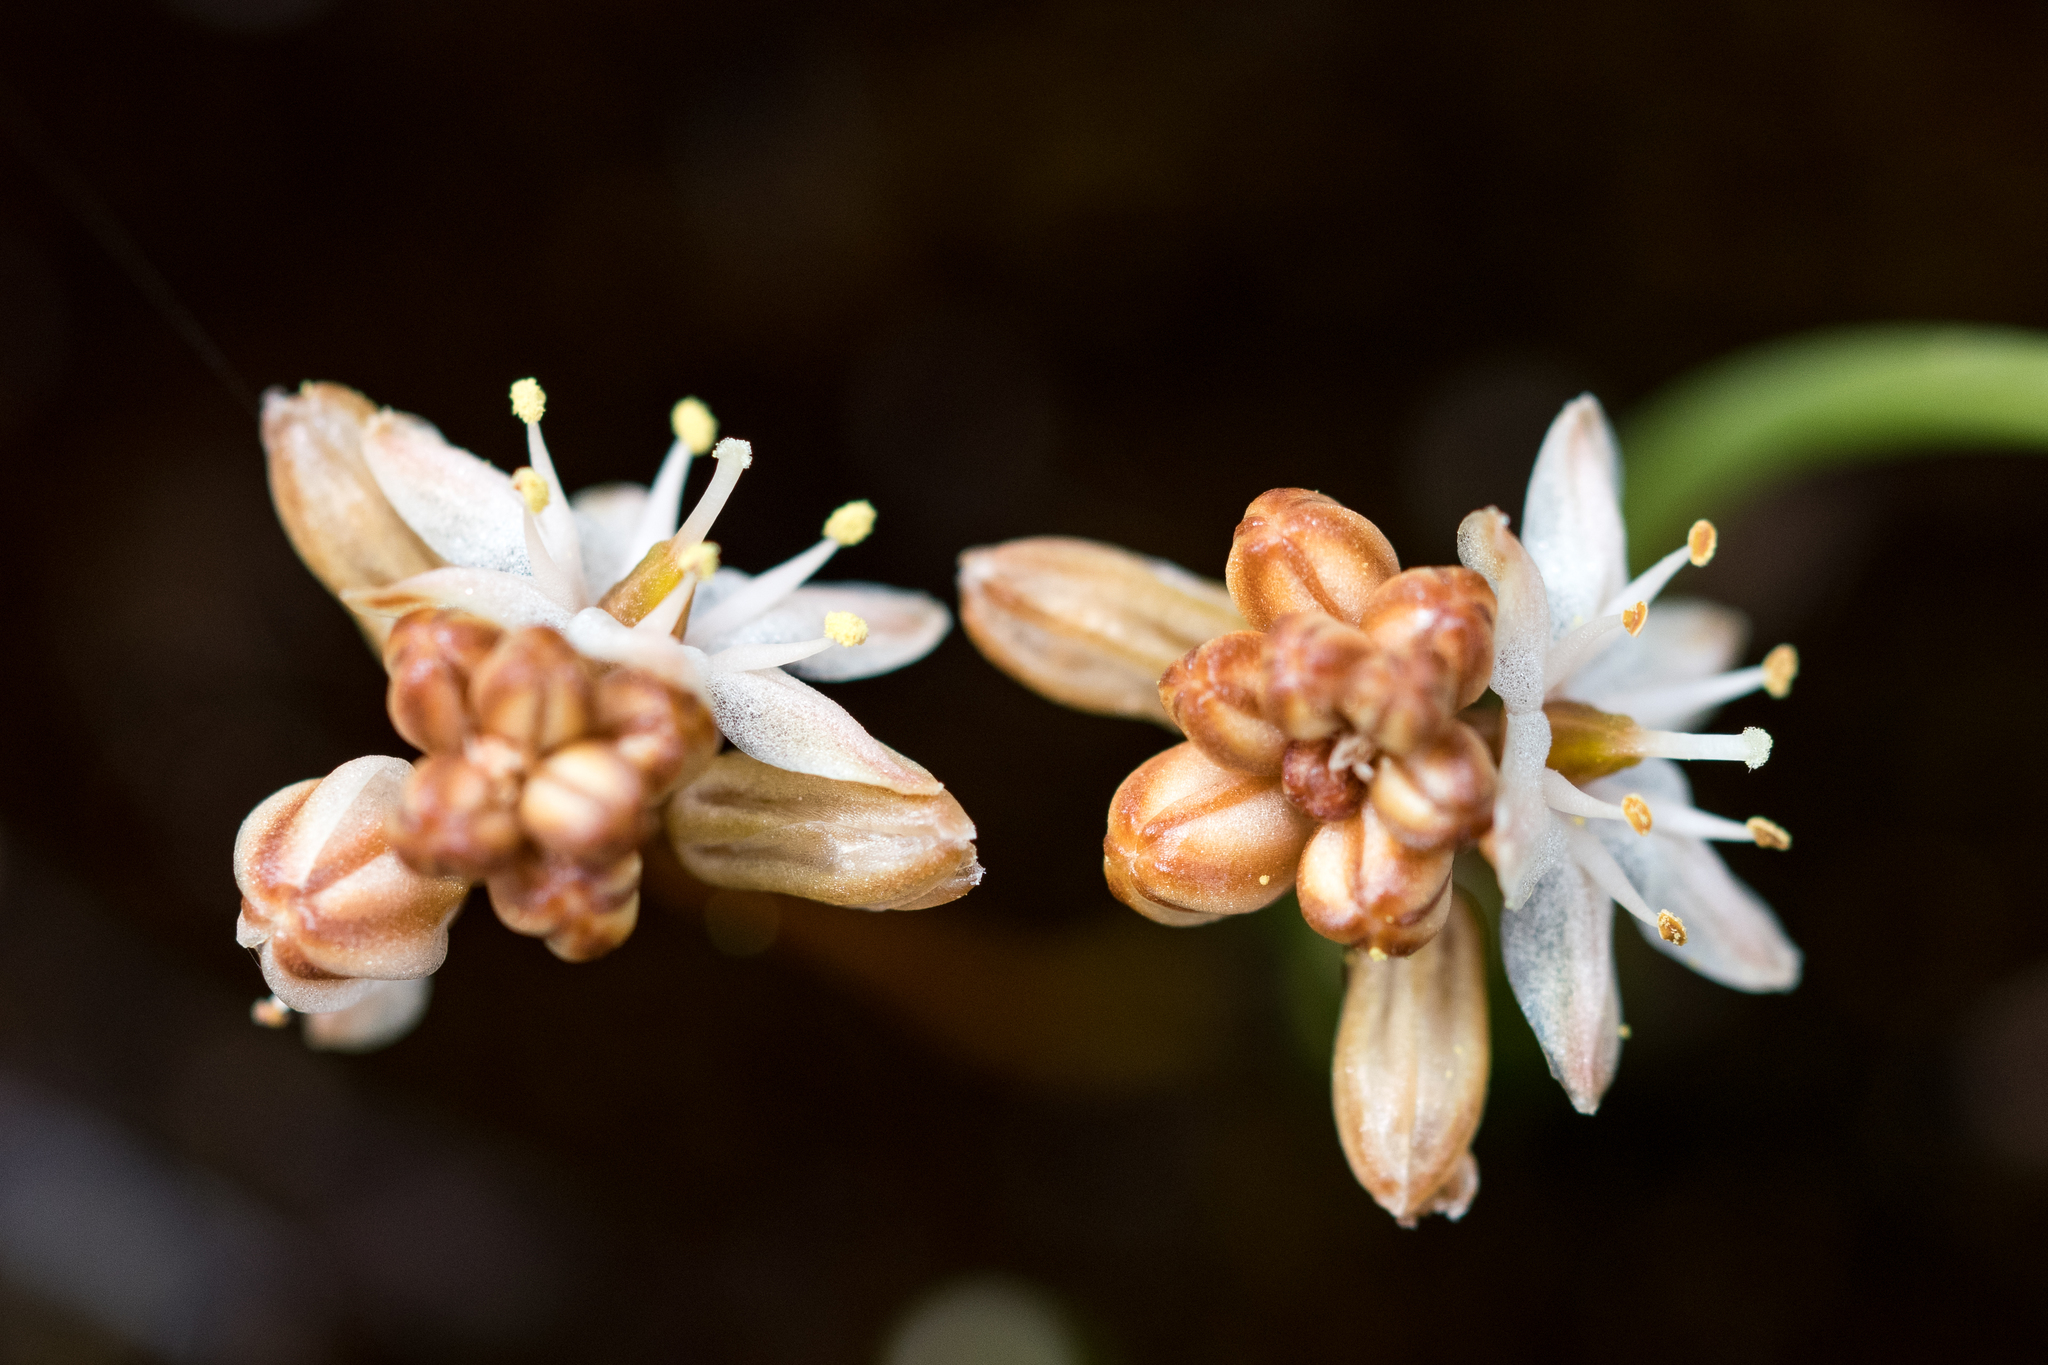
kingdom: Plantae
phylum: Tracheophyta
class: Liliopsida
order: Asparagales
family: Asparagaceae
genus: Austronea
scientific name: Austronea virens
